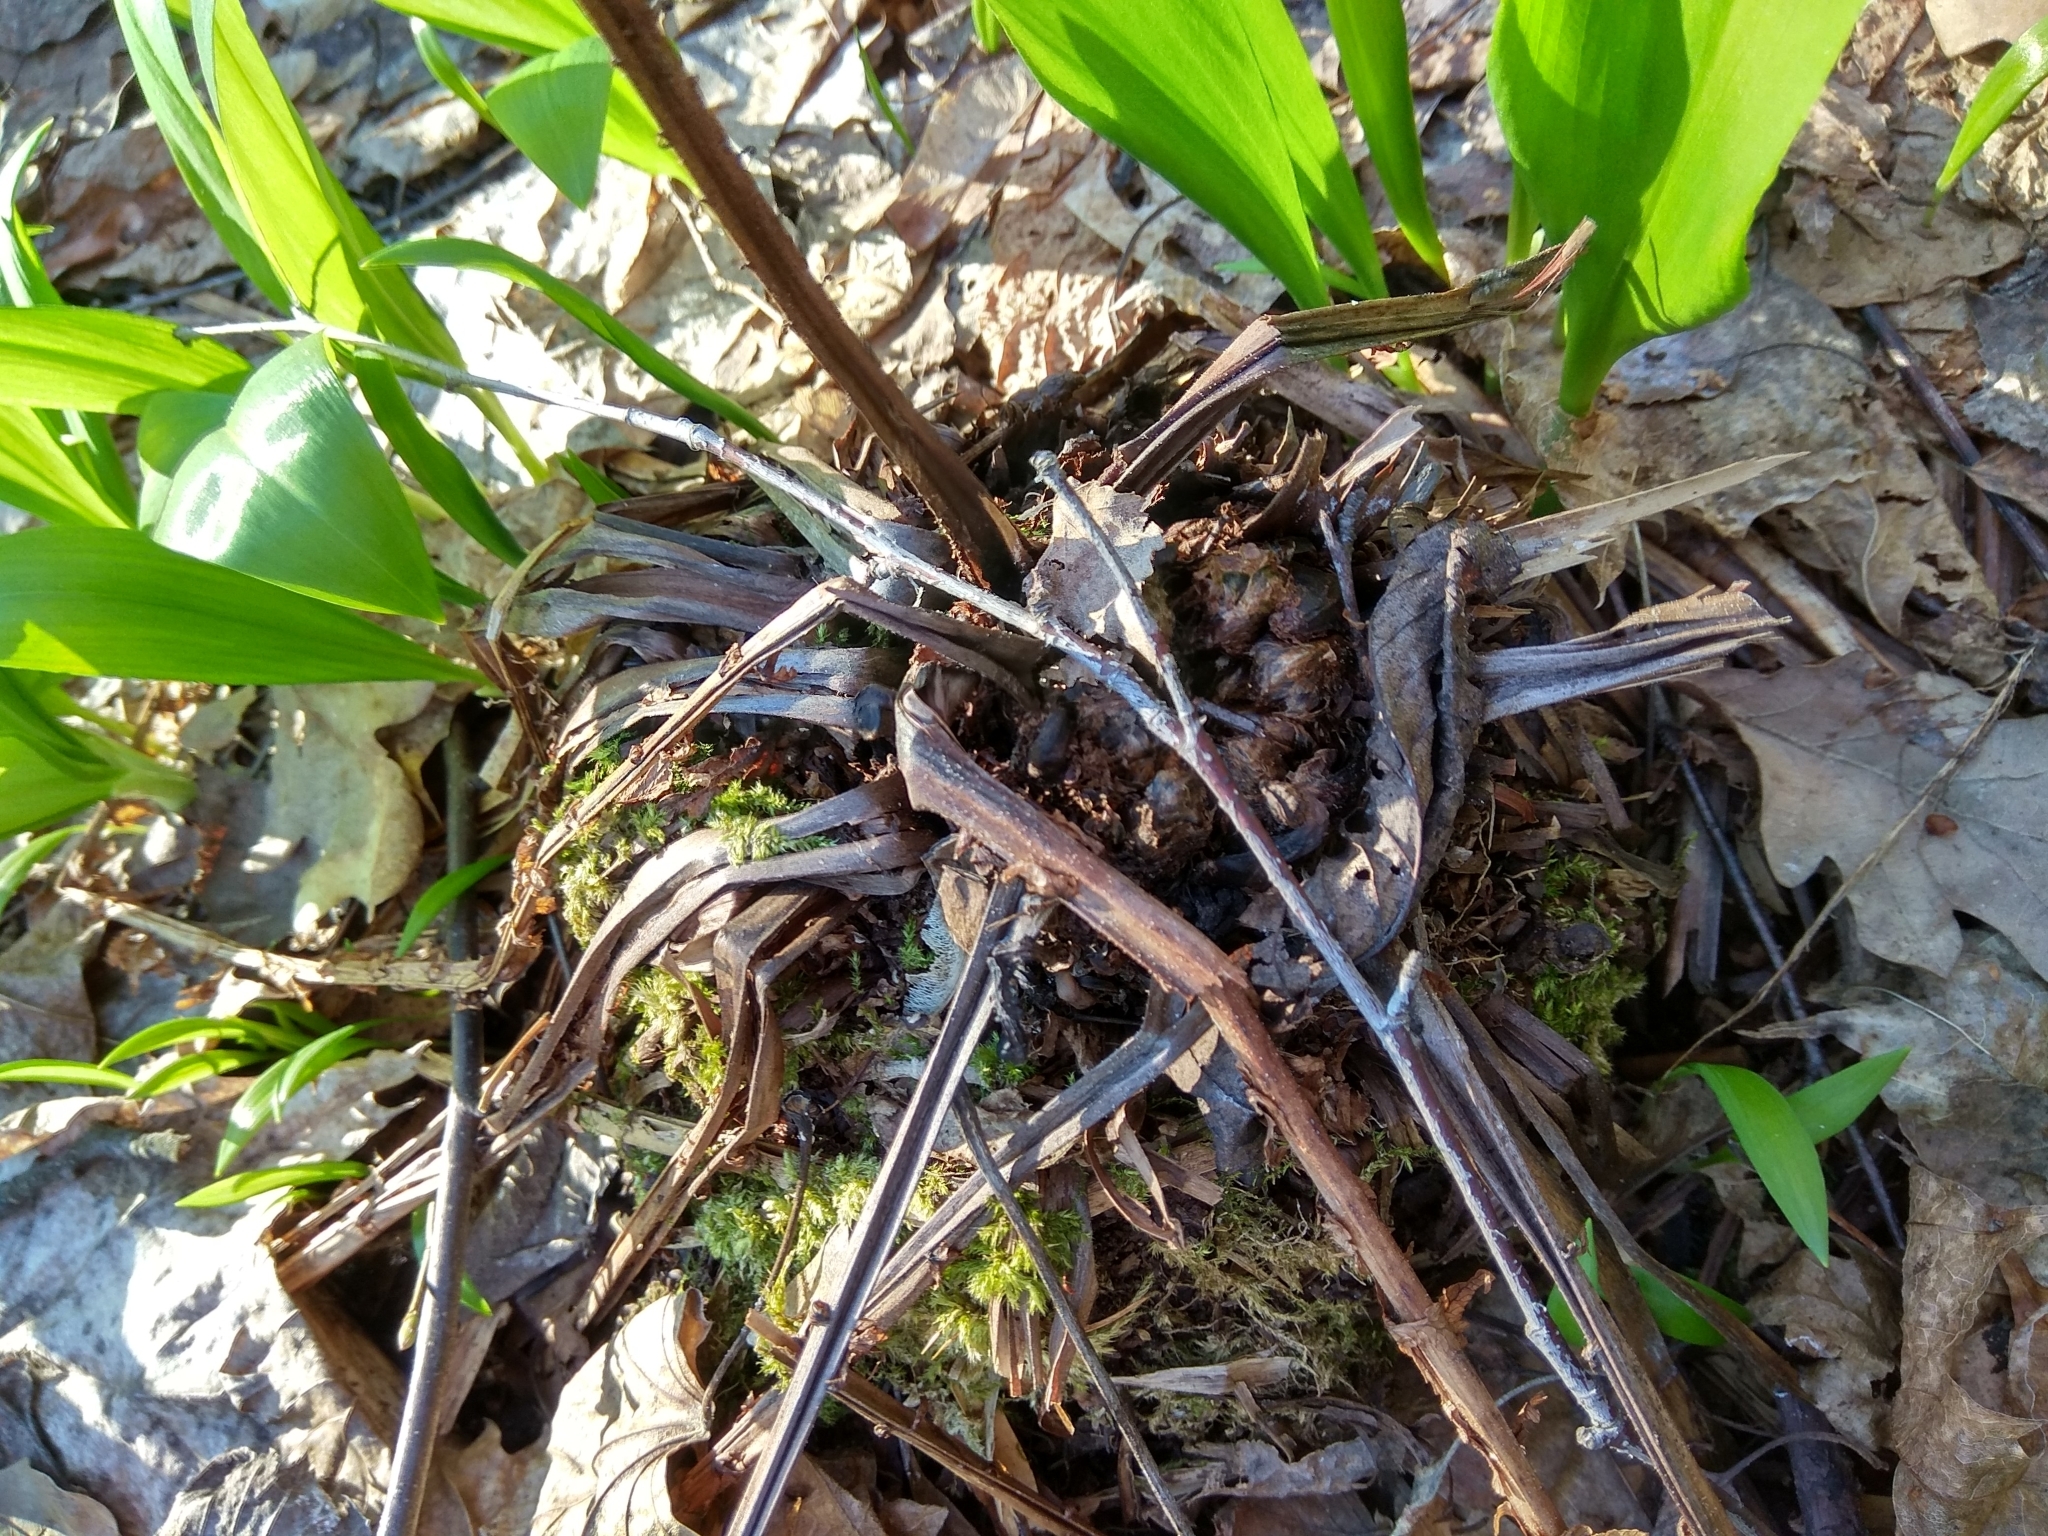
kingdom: Plantae
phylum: Tracheophyta
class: Polypodiopsida
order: Polypodiales
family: Onocleaceae
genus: Matteuccia
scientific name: Matteuccia struthiopteris
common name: Ostrich fern
